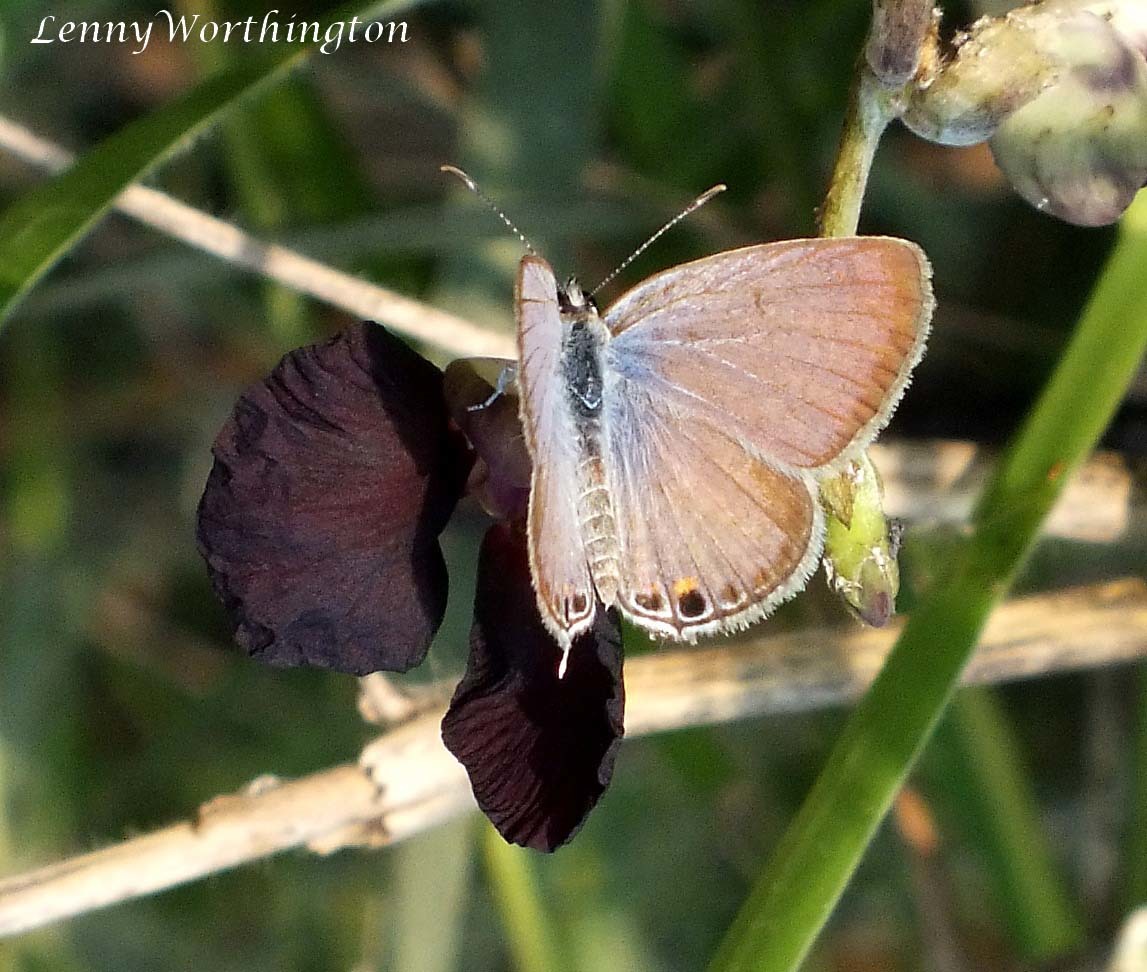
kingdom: Animalia
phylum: Arthropoda
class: Insecta
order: Lepidoptera
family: Lycaenidae
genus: Euchrysops
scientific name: Euchrysops cnejus
